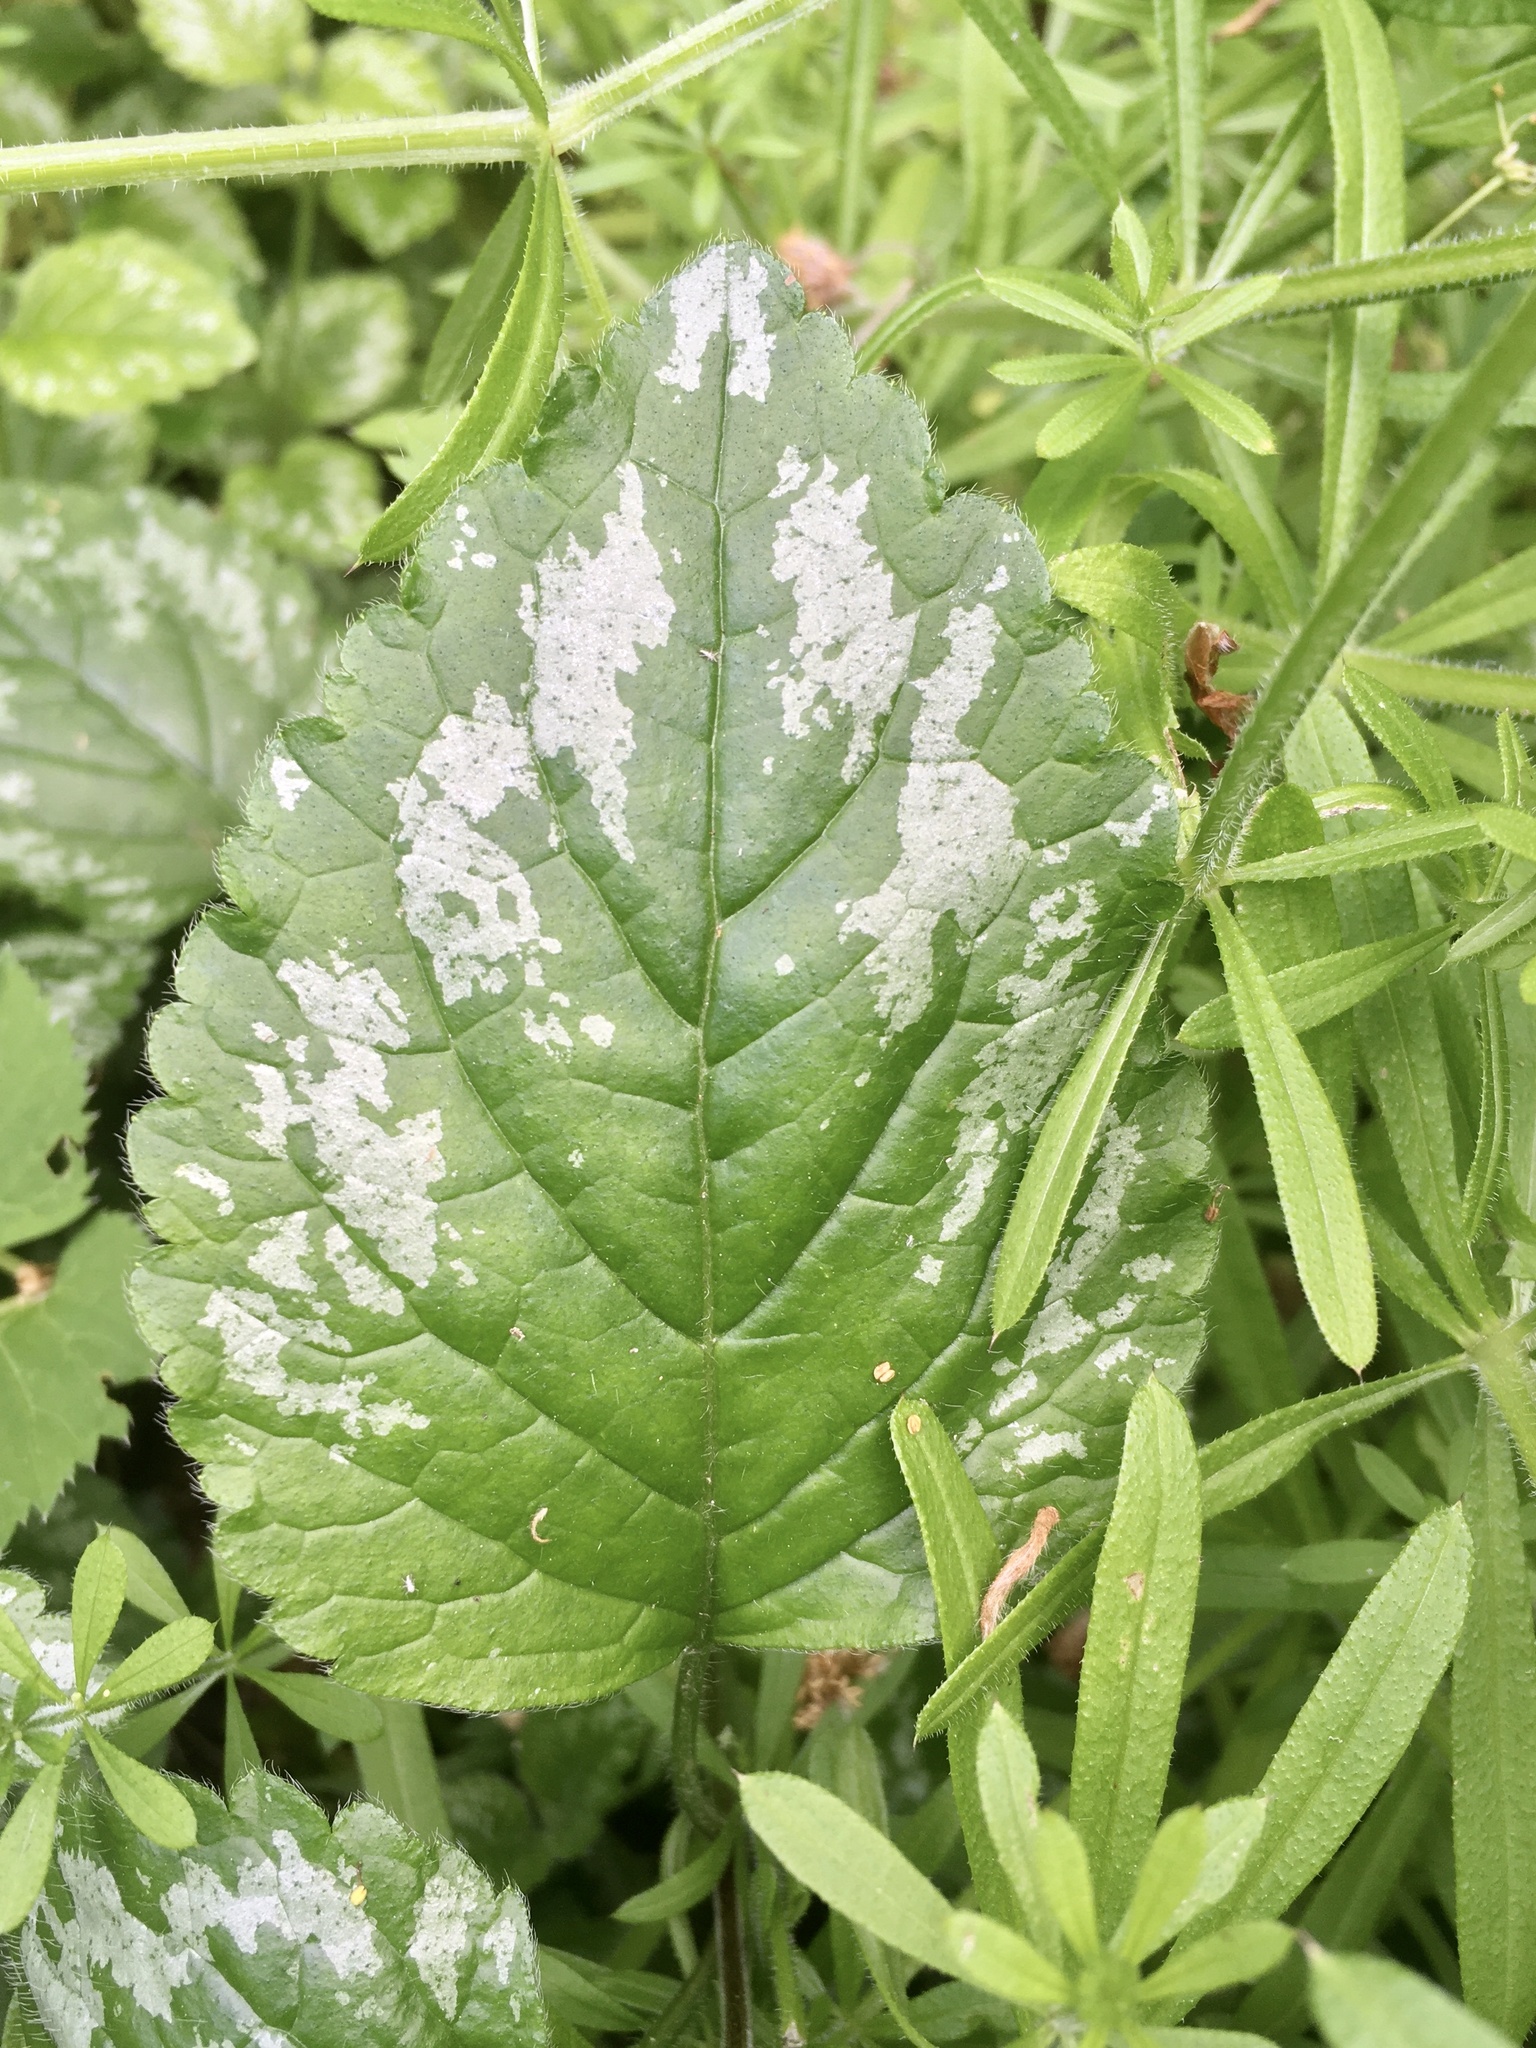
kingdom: Plantae
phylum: Tracheophyta
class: Magnoliopsida
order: Lamiales
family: Lamiaceae
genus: Lamium
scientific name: Lamium galeobdolon
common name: Yellow archangel
